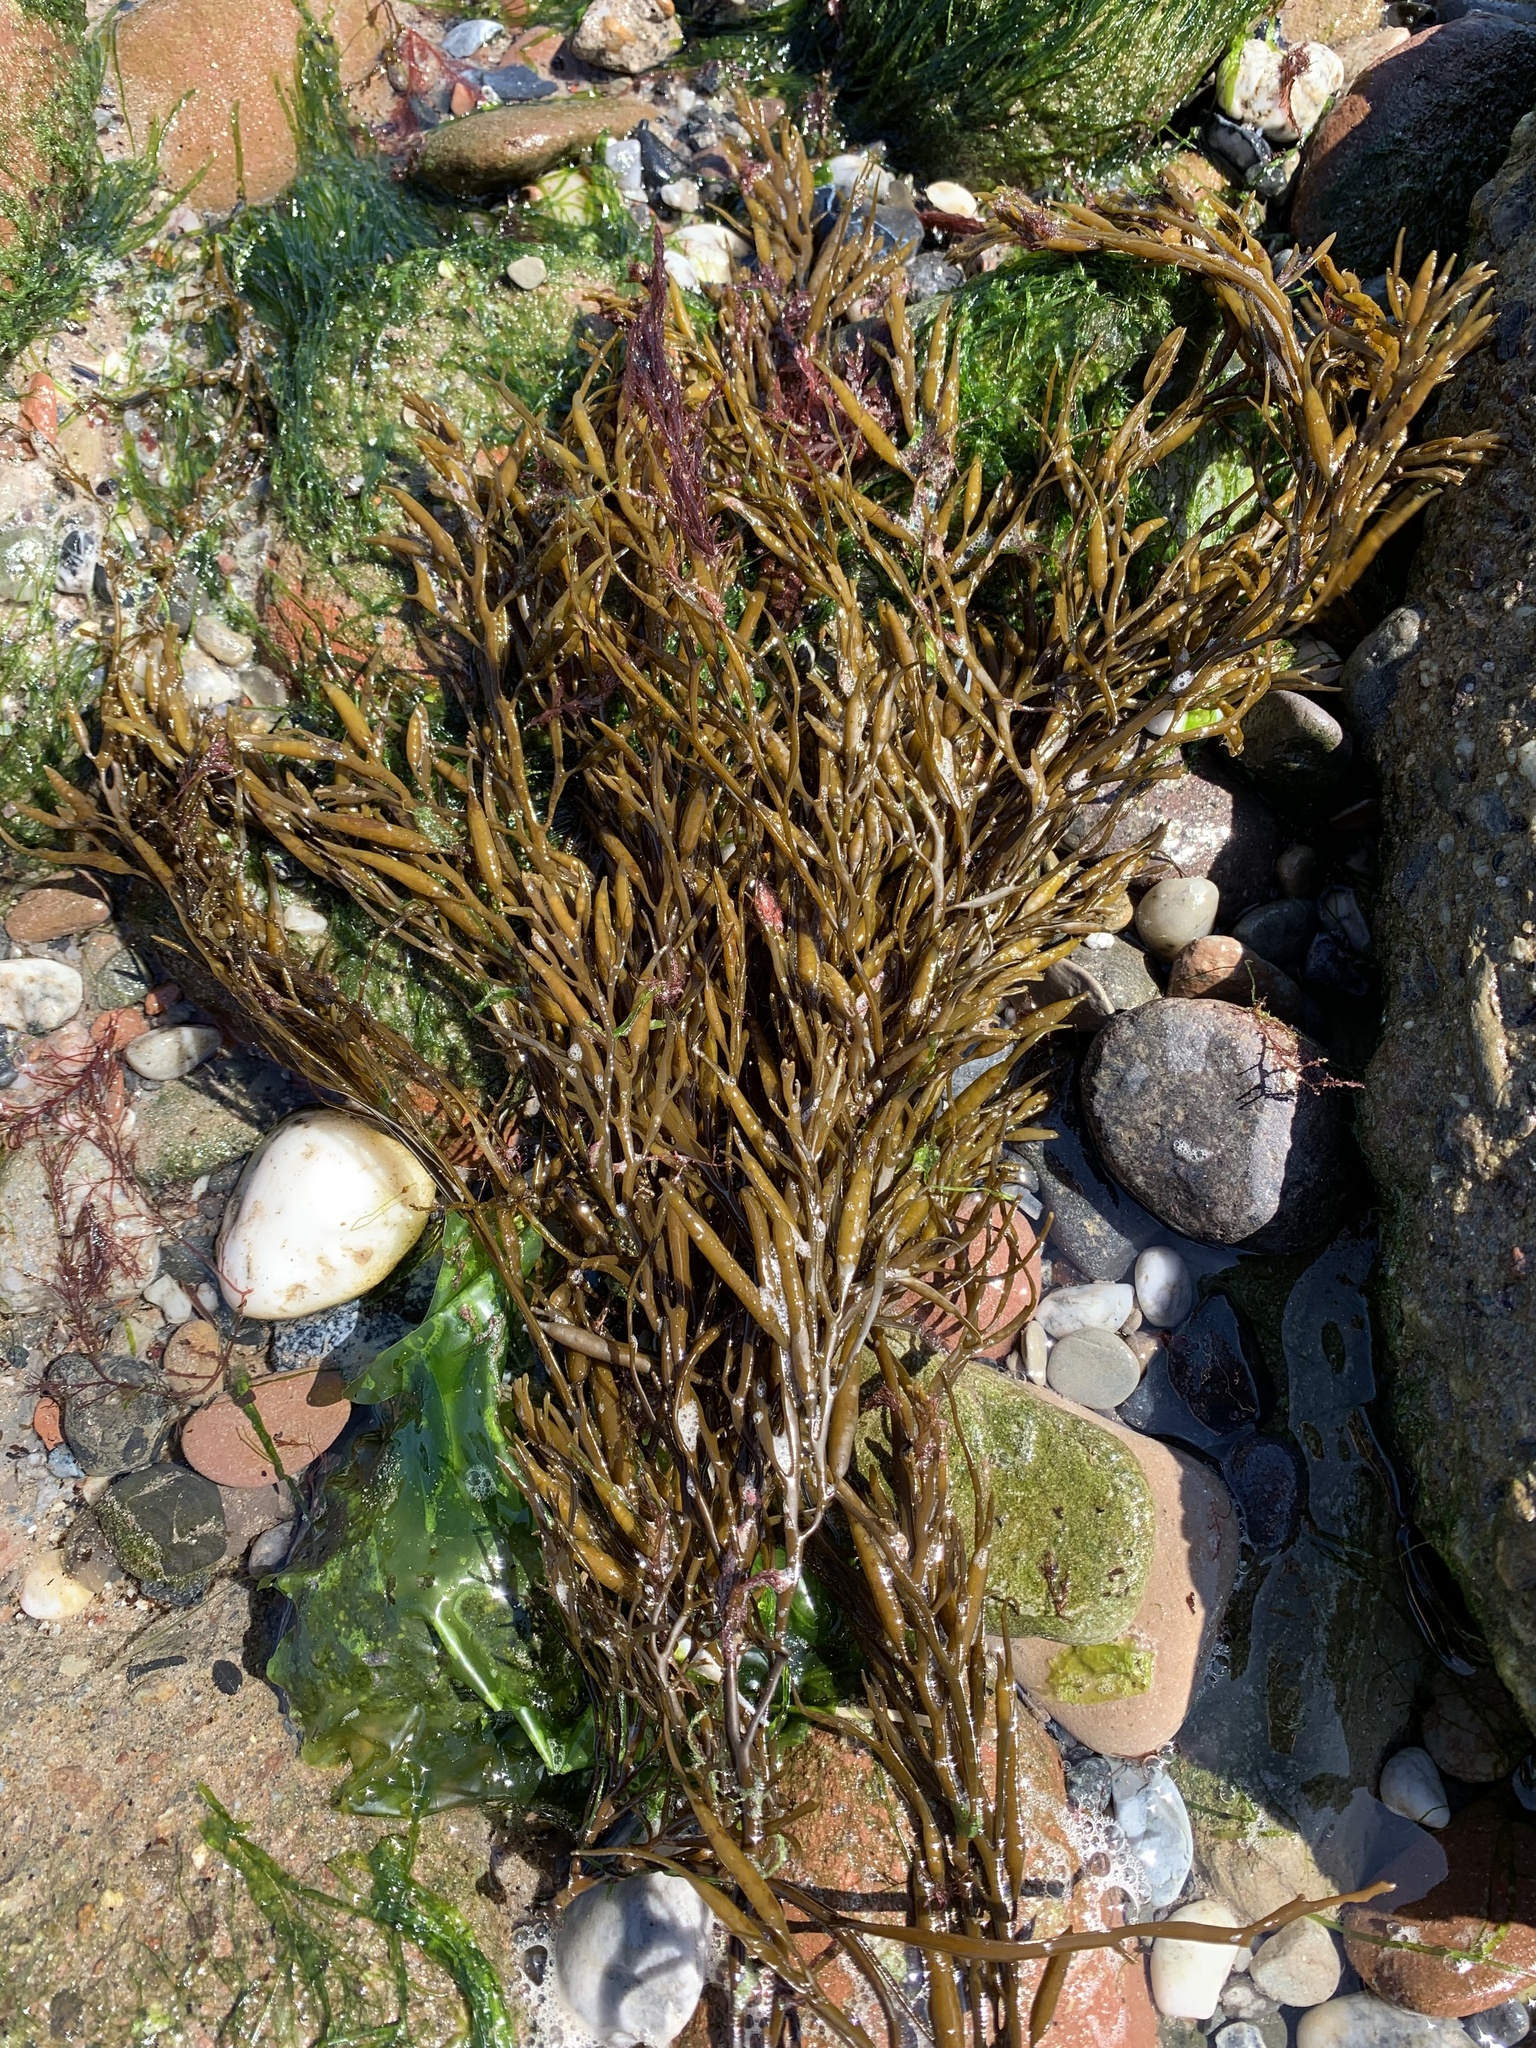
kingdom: Chromista
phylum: Ochrophyta
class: Phaeophyceae
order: Fucales
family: Sargassaceae
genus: Halidrys
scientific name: Halidrys siliquosa
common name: Sea oak
